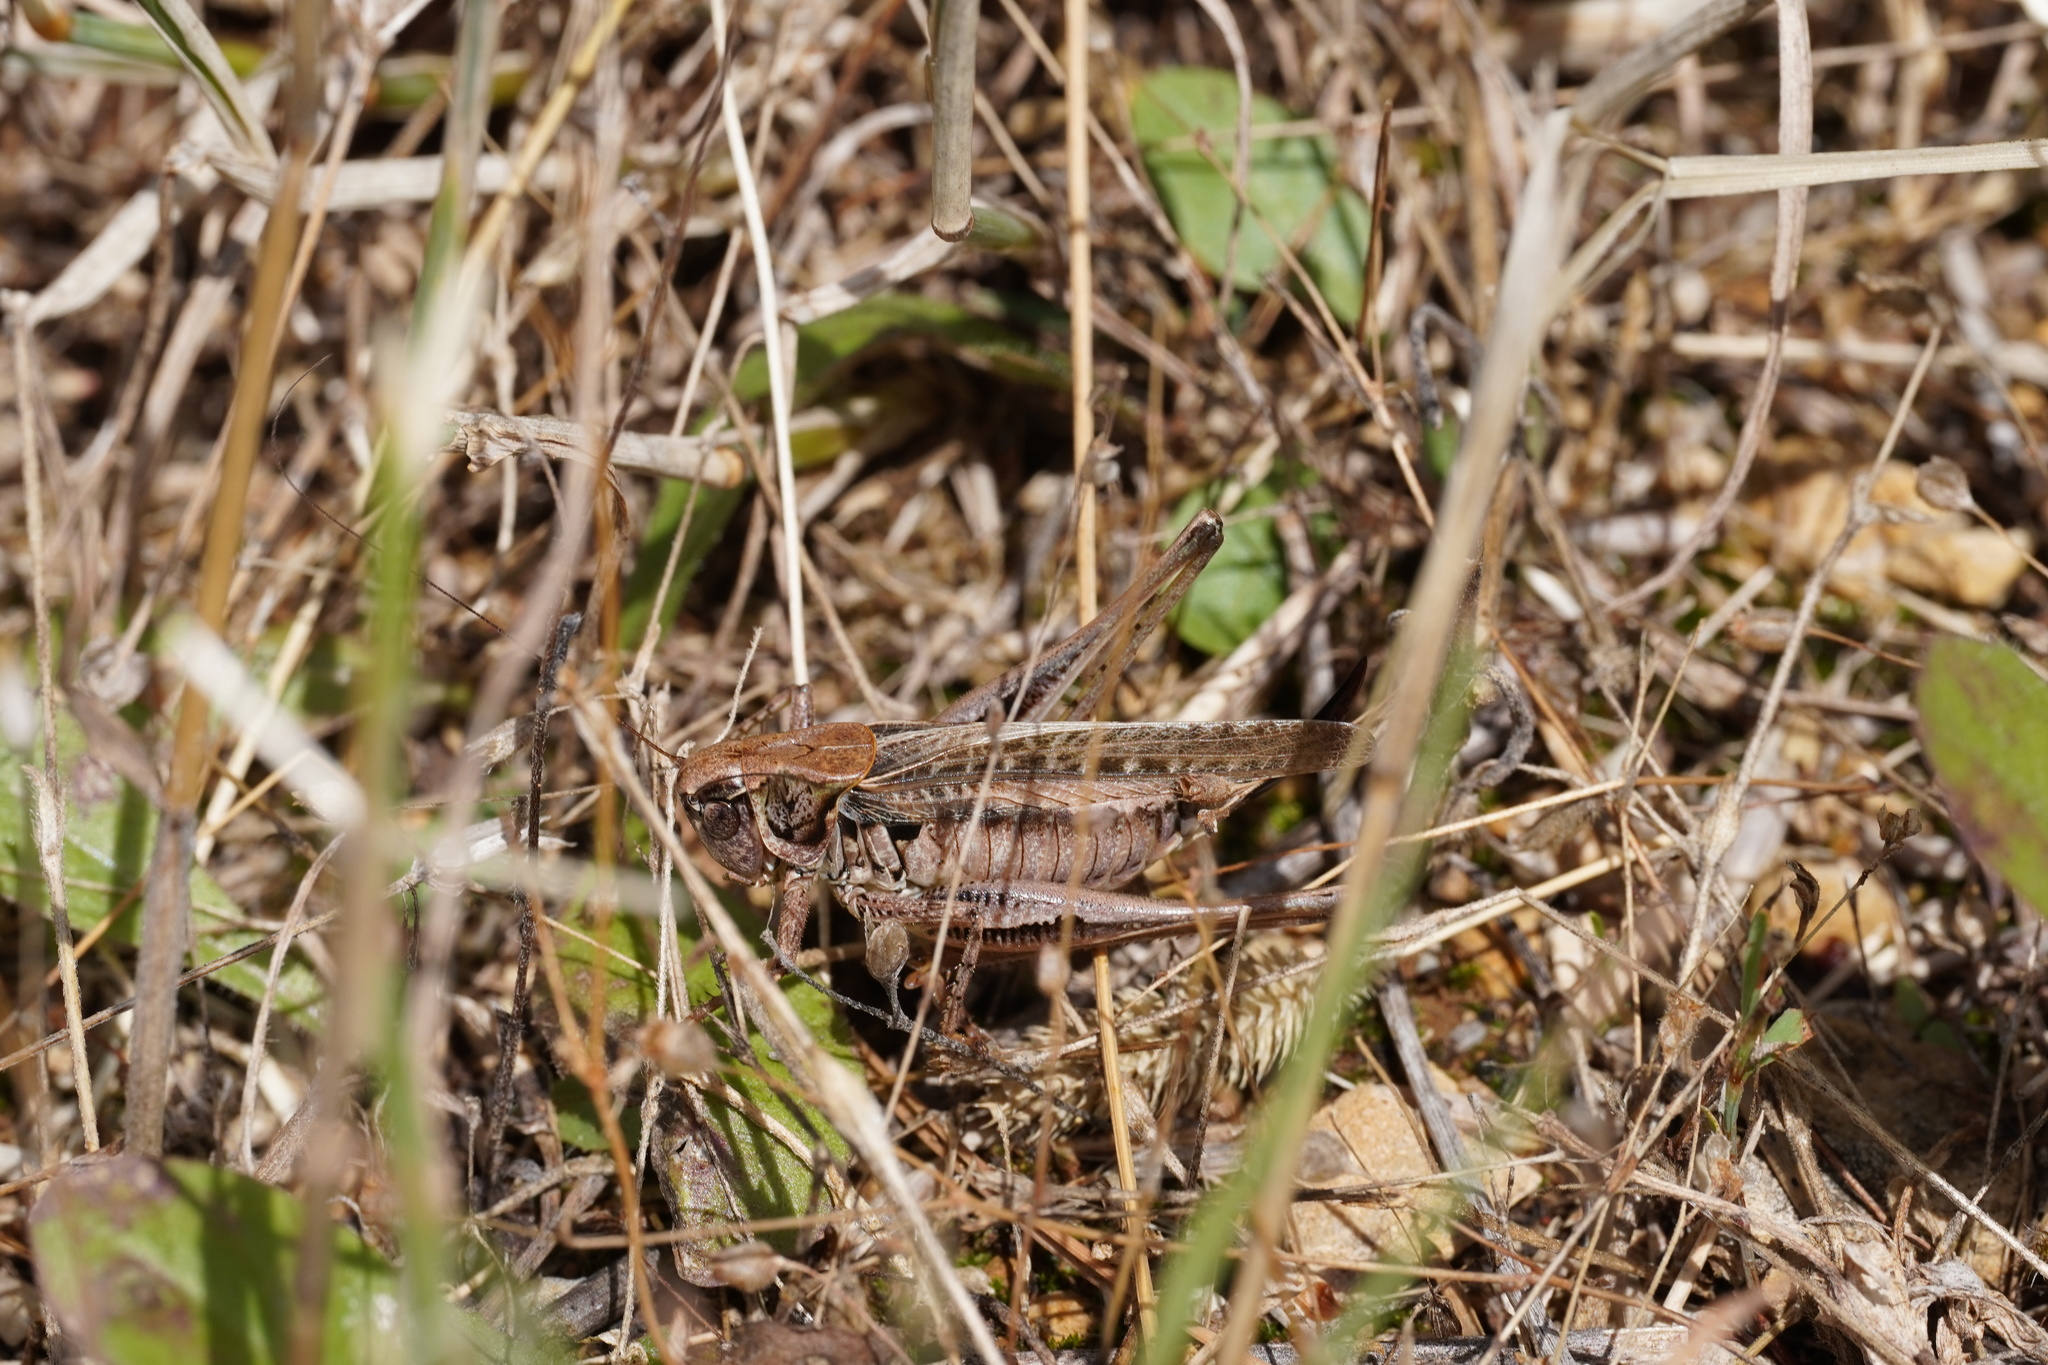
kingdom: Animalia
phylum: Arthropoda
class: Insecta
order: Orthoptera
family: Tettigoniidae
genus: Platycleis
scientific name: Platycleis albopunctata
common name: Grey bush-cricket
